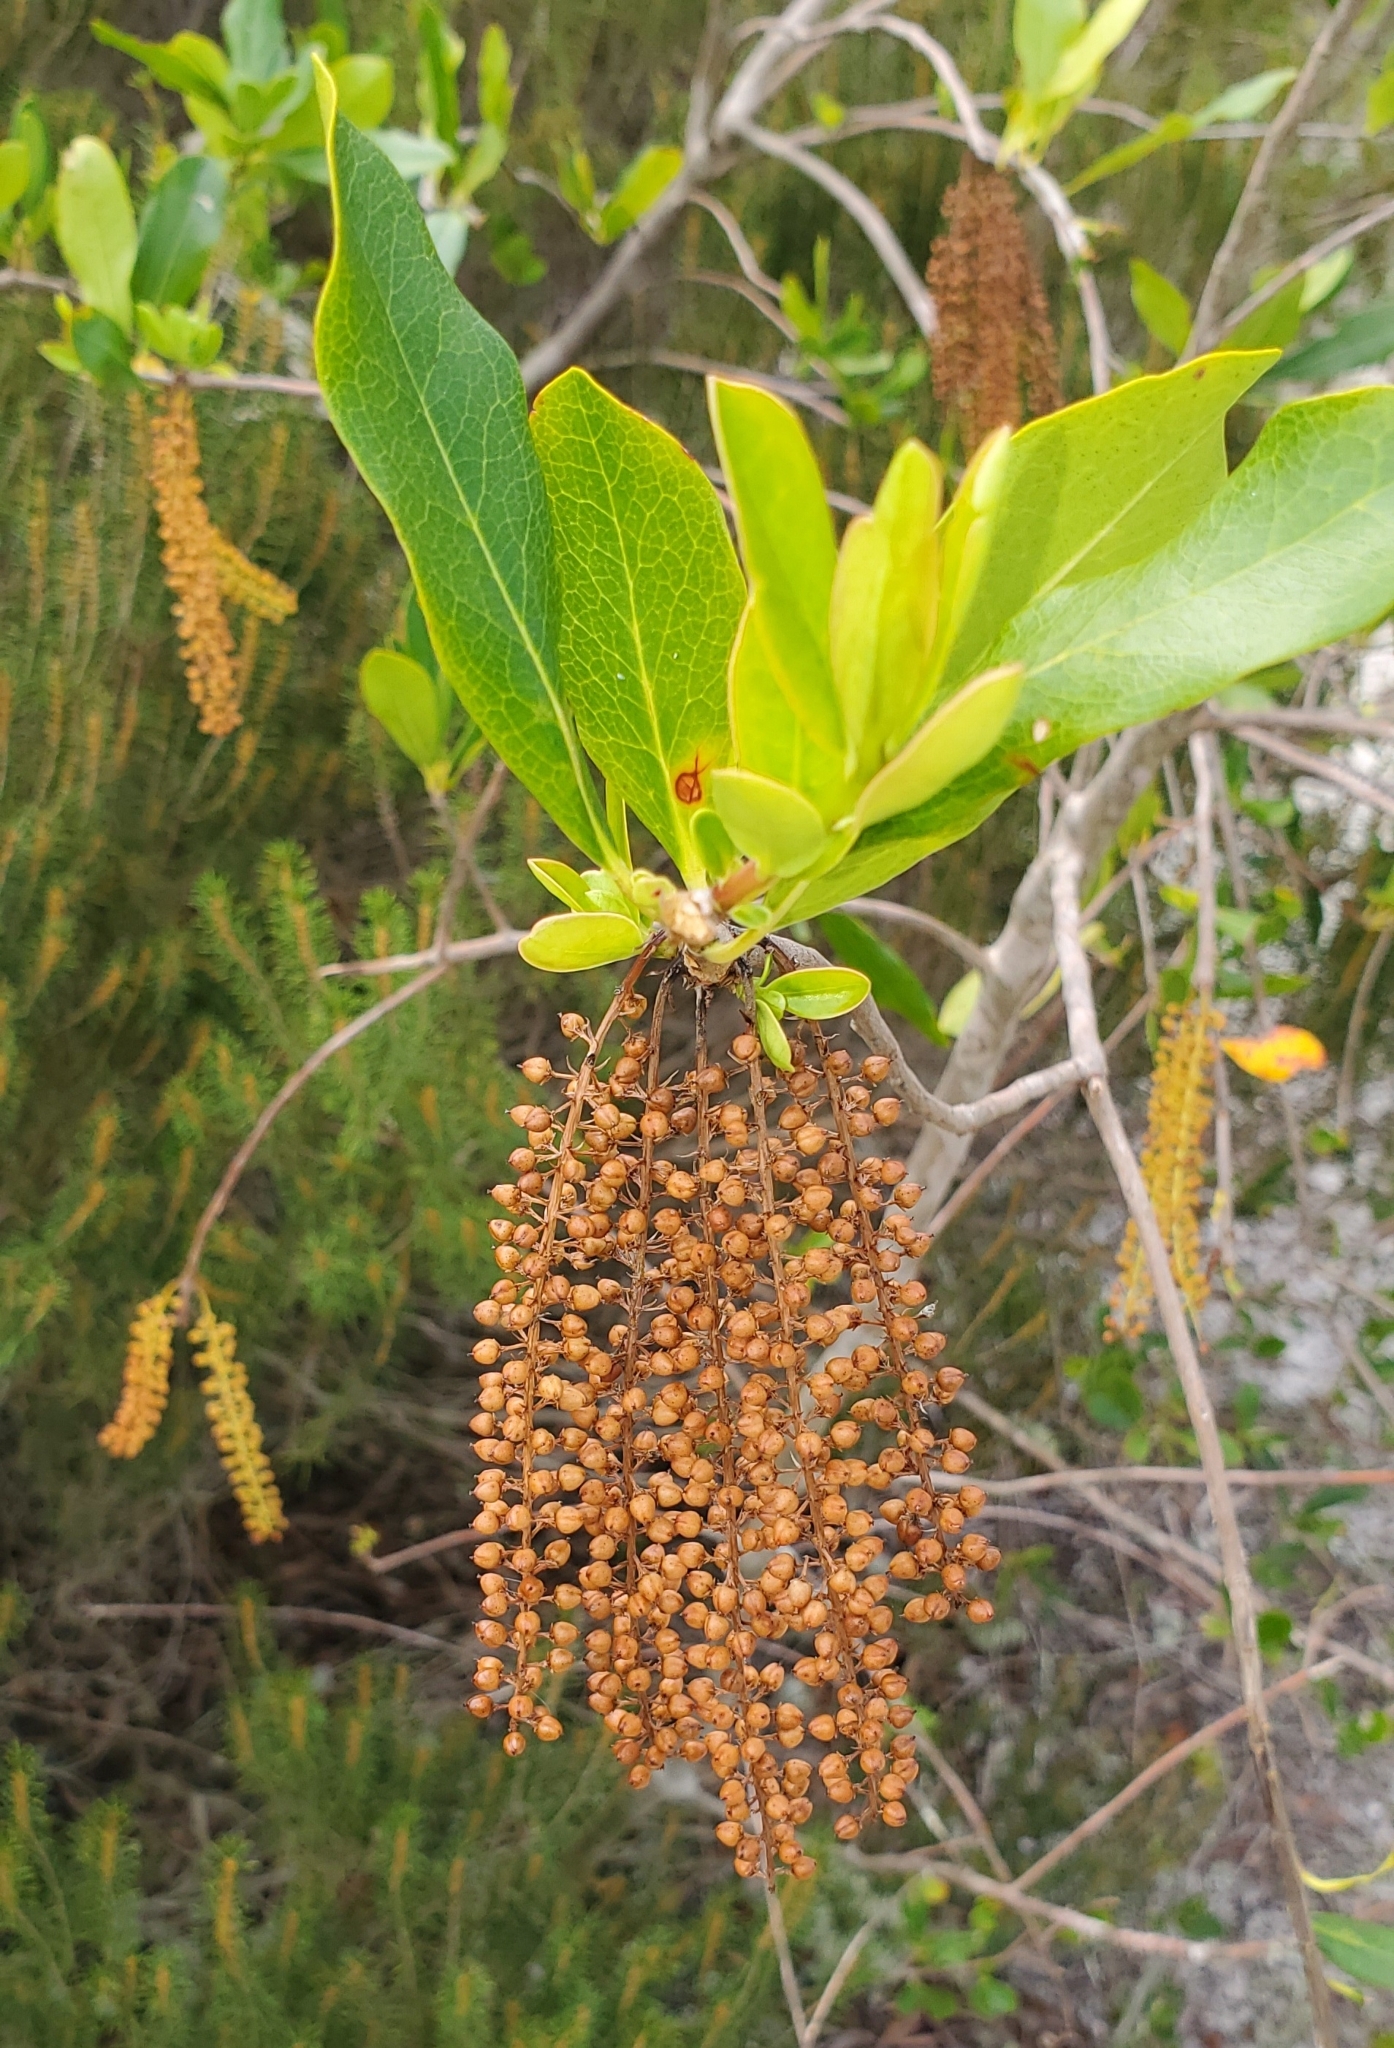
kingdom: Plantae
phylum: Tracheophyta
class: Magnoliopsida
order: Ericales
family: Cyrillaceae
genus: Cyrilla
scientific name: Cyrilla racemiflora
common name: Black titi
